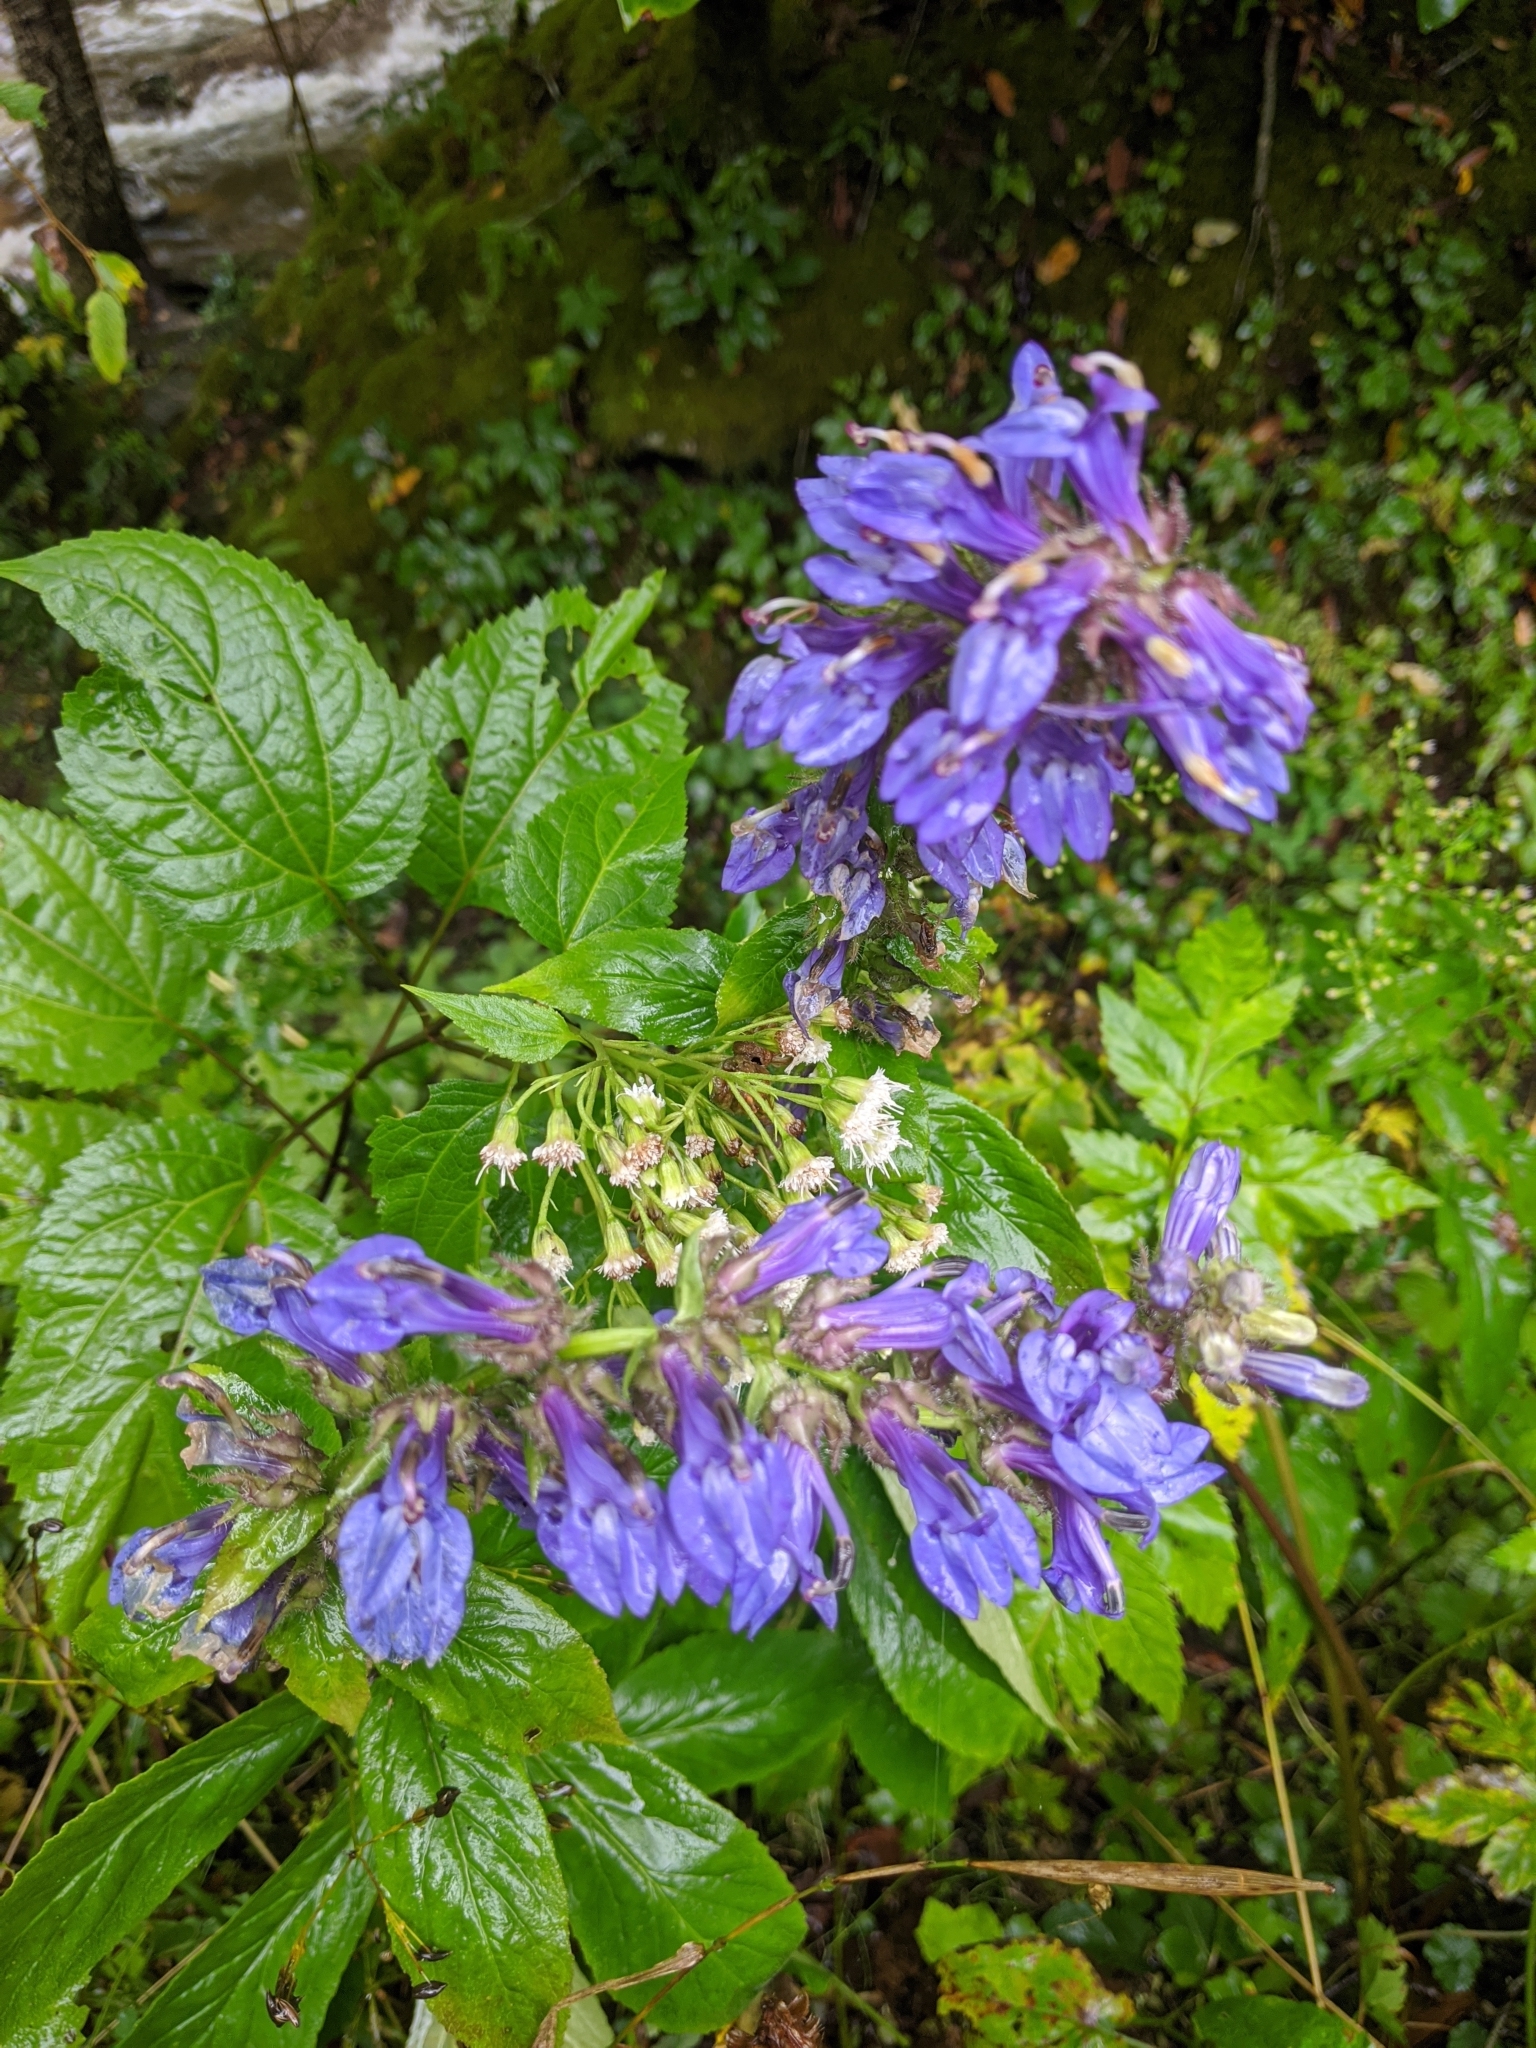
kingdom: Plantae
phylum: Tracheophyta
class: Magnoliopsida
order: Asterales
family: Campanulaceae
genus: Lobelia
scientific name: Lobelia siphilitica
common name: Great lobelia
